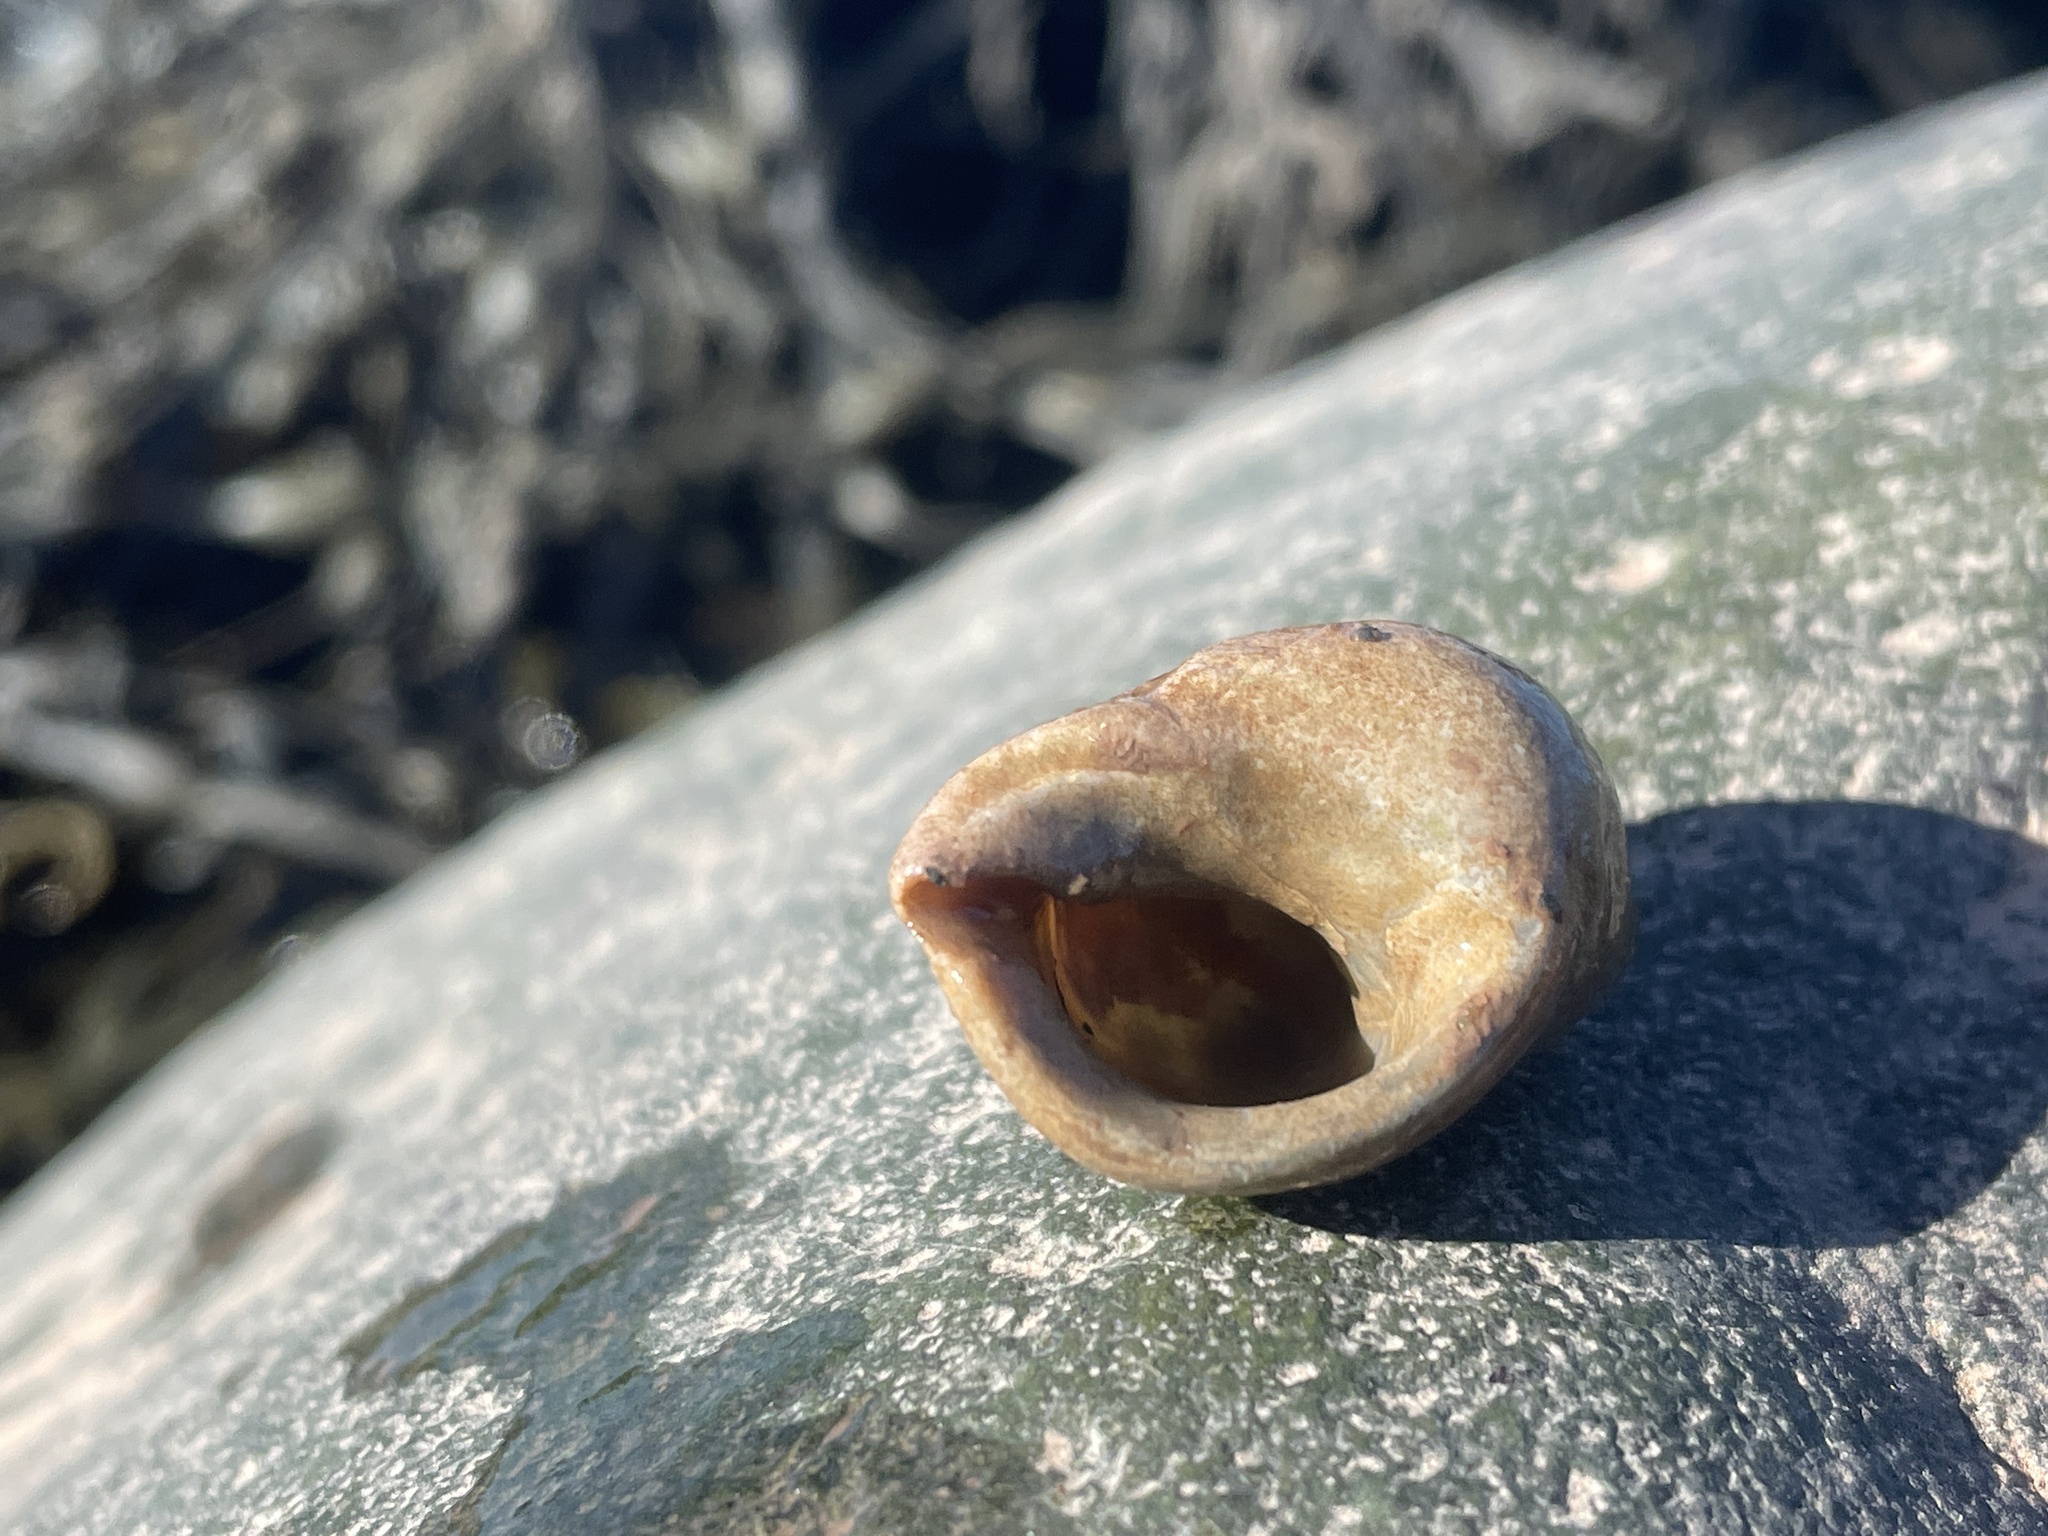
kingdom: Animalia
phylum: Mollusca
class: Gastropoda
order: Neogastropoda
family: Muricidae
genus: Nucella
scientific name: Nucella lapillus
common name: Dog whelk
